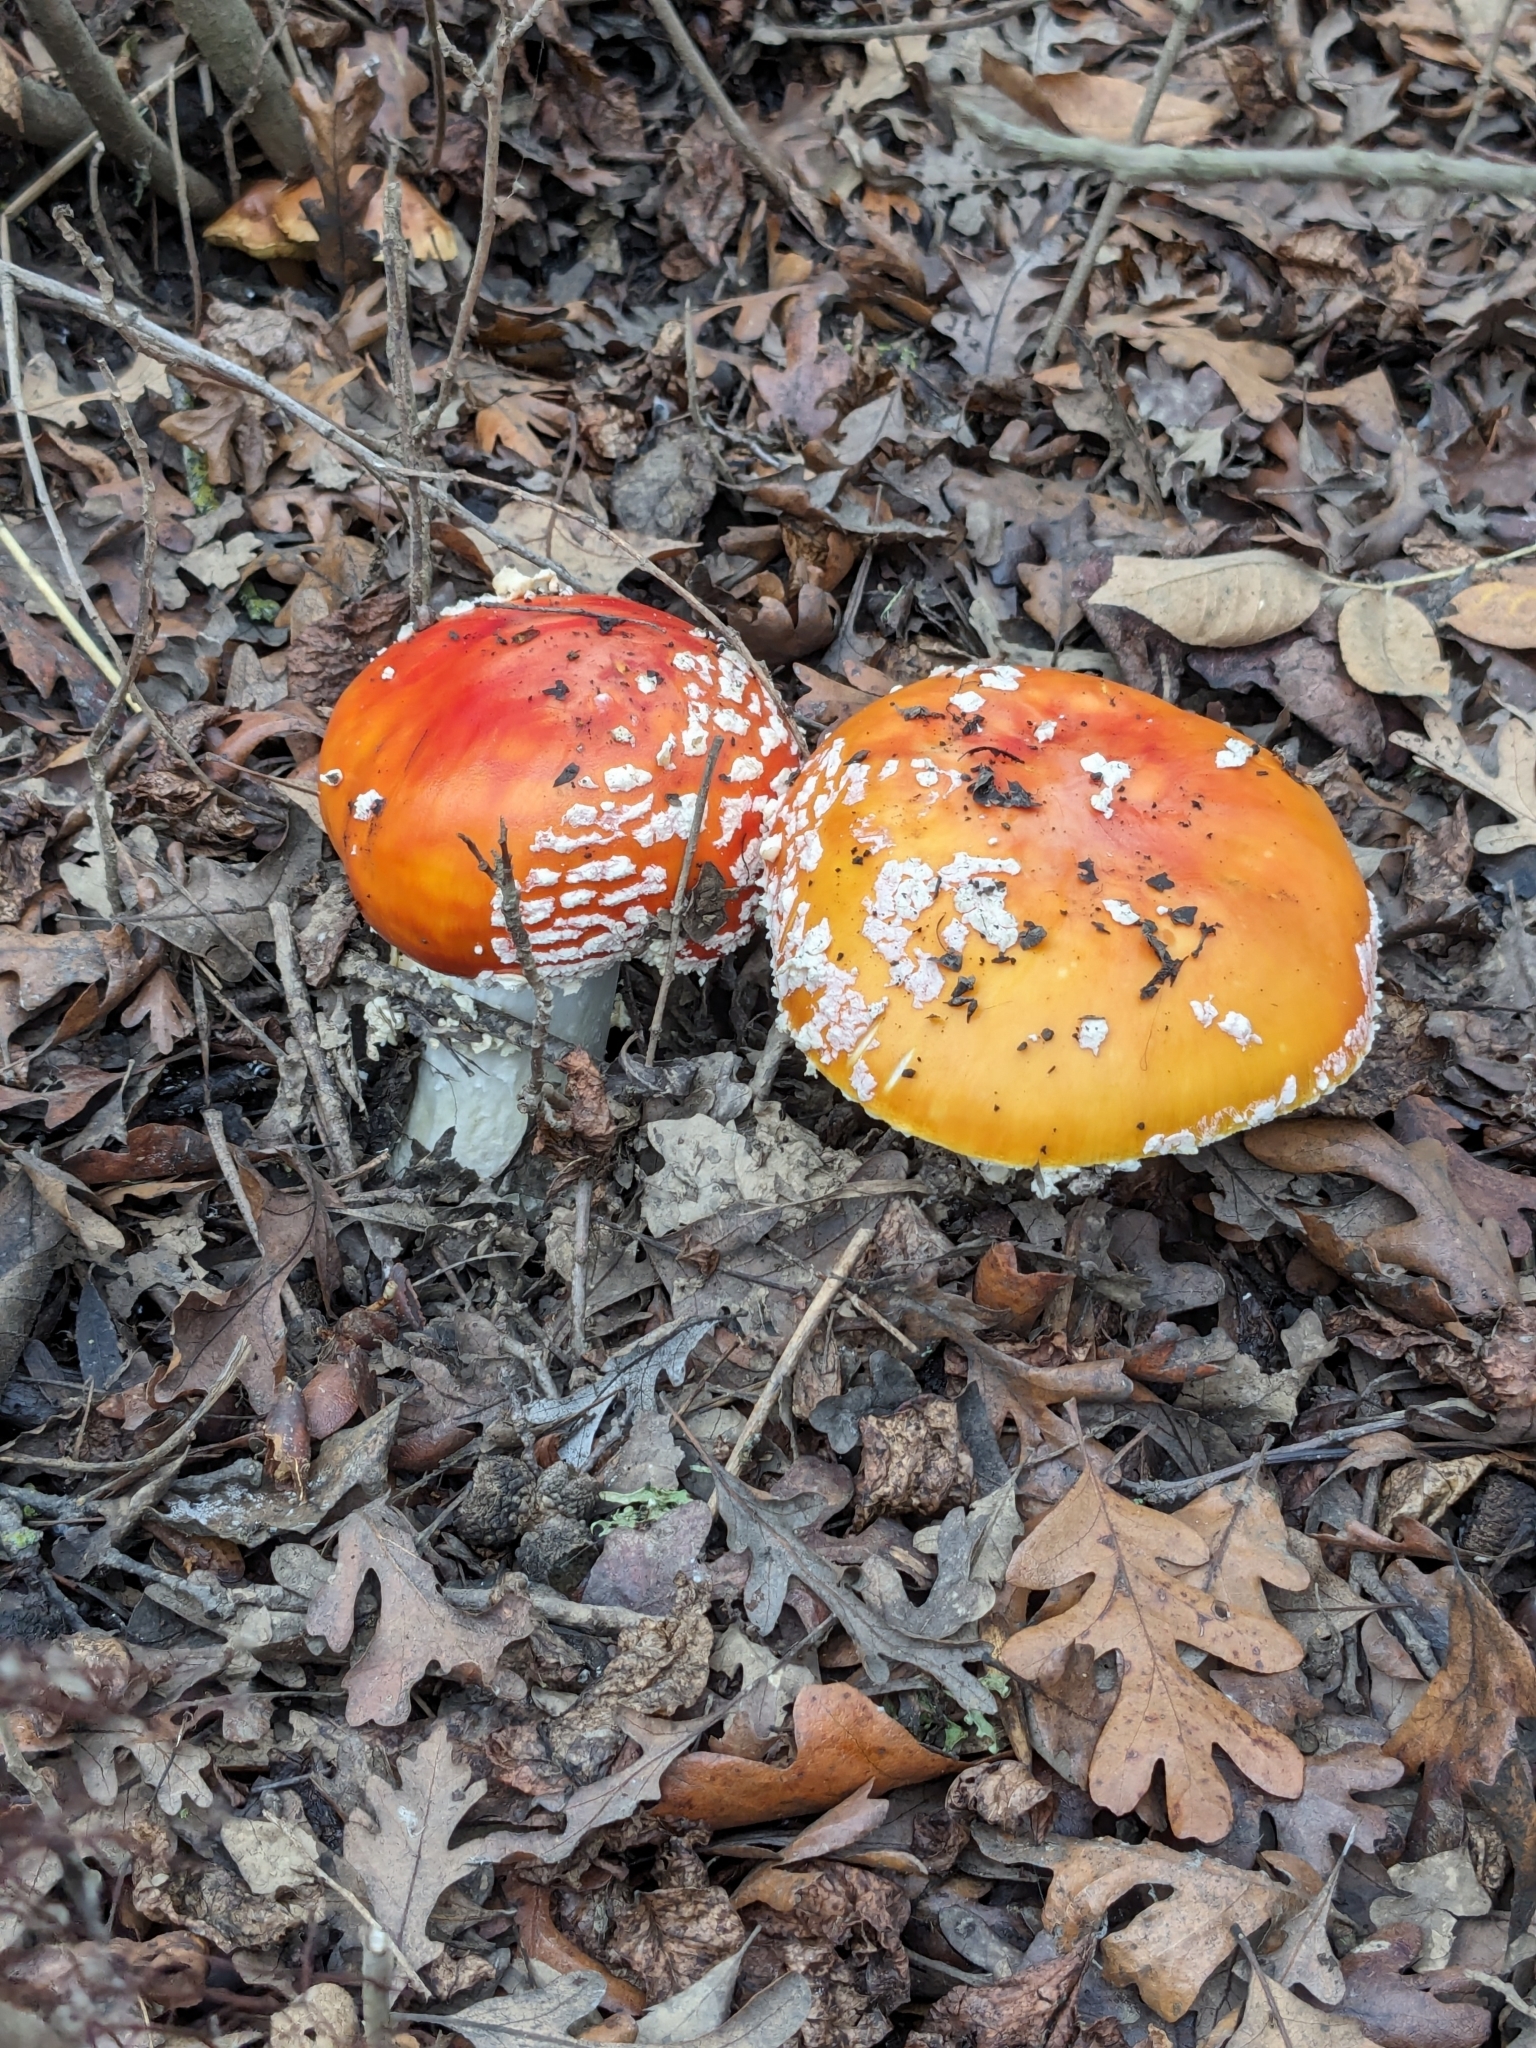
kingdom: Fungi
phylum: Basidiomycota
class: Agaricomycetes
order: Agaricales
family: Amanitaceae
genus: Amanita
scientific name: Amanita muscaria
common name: Fly agaric
